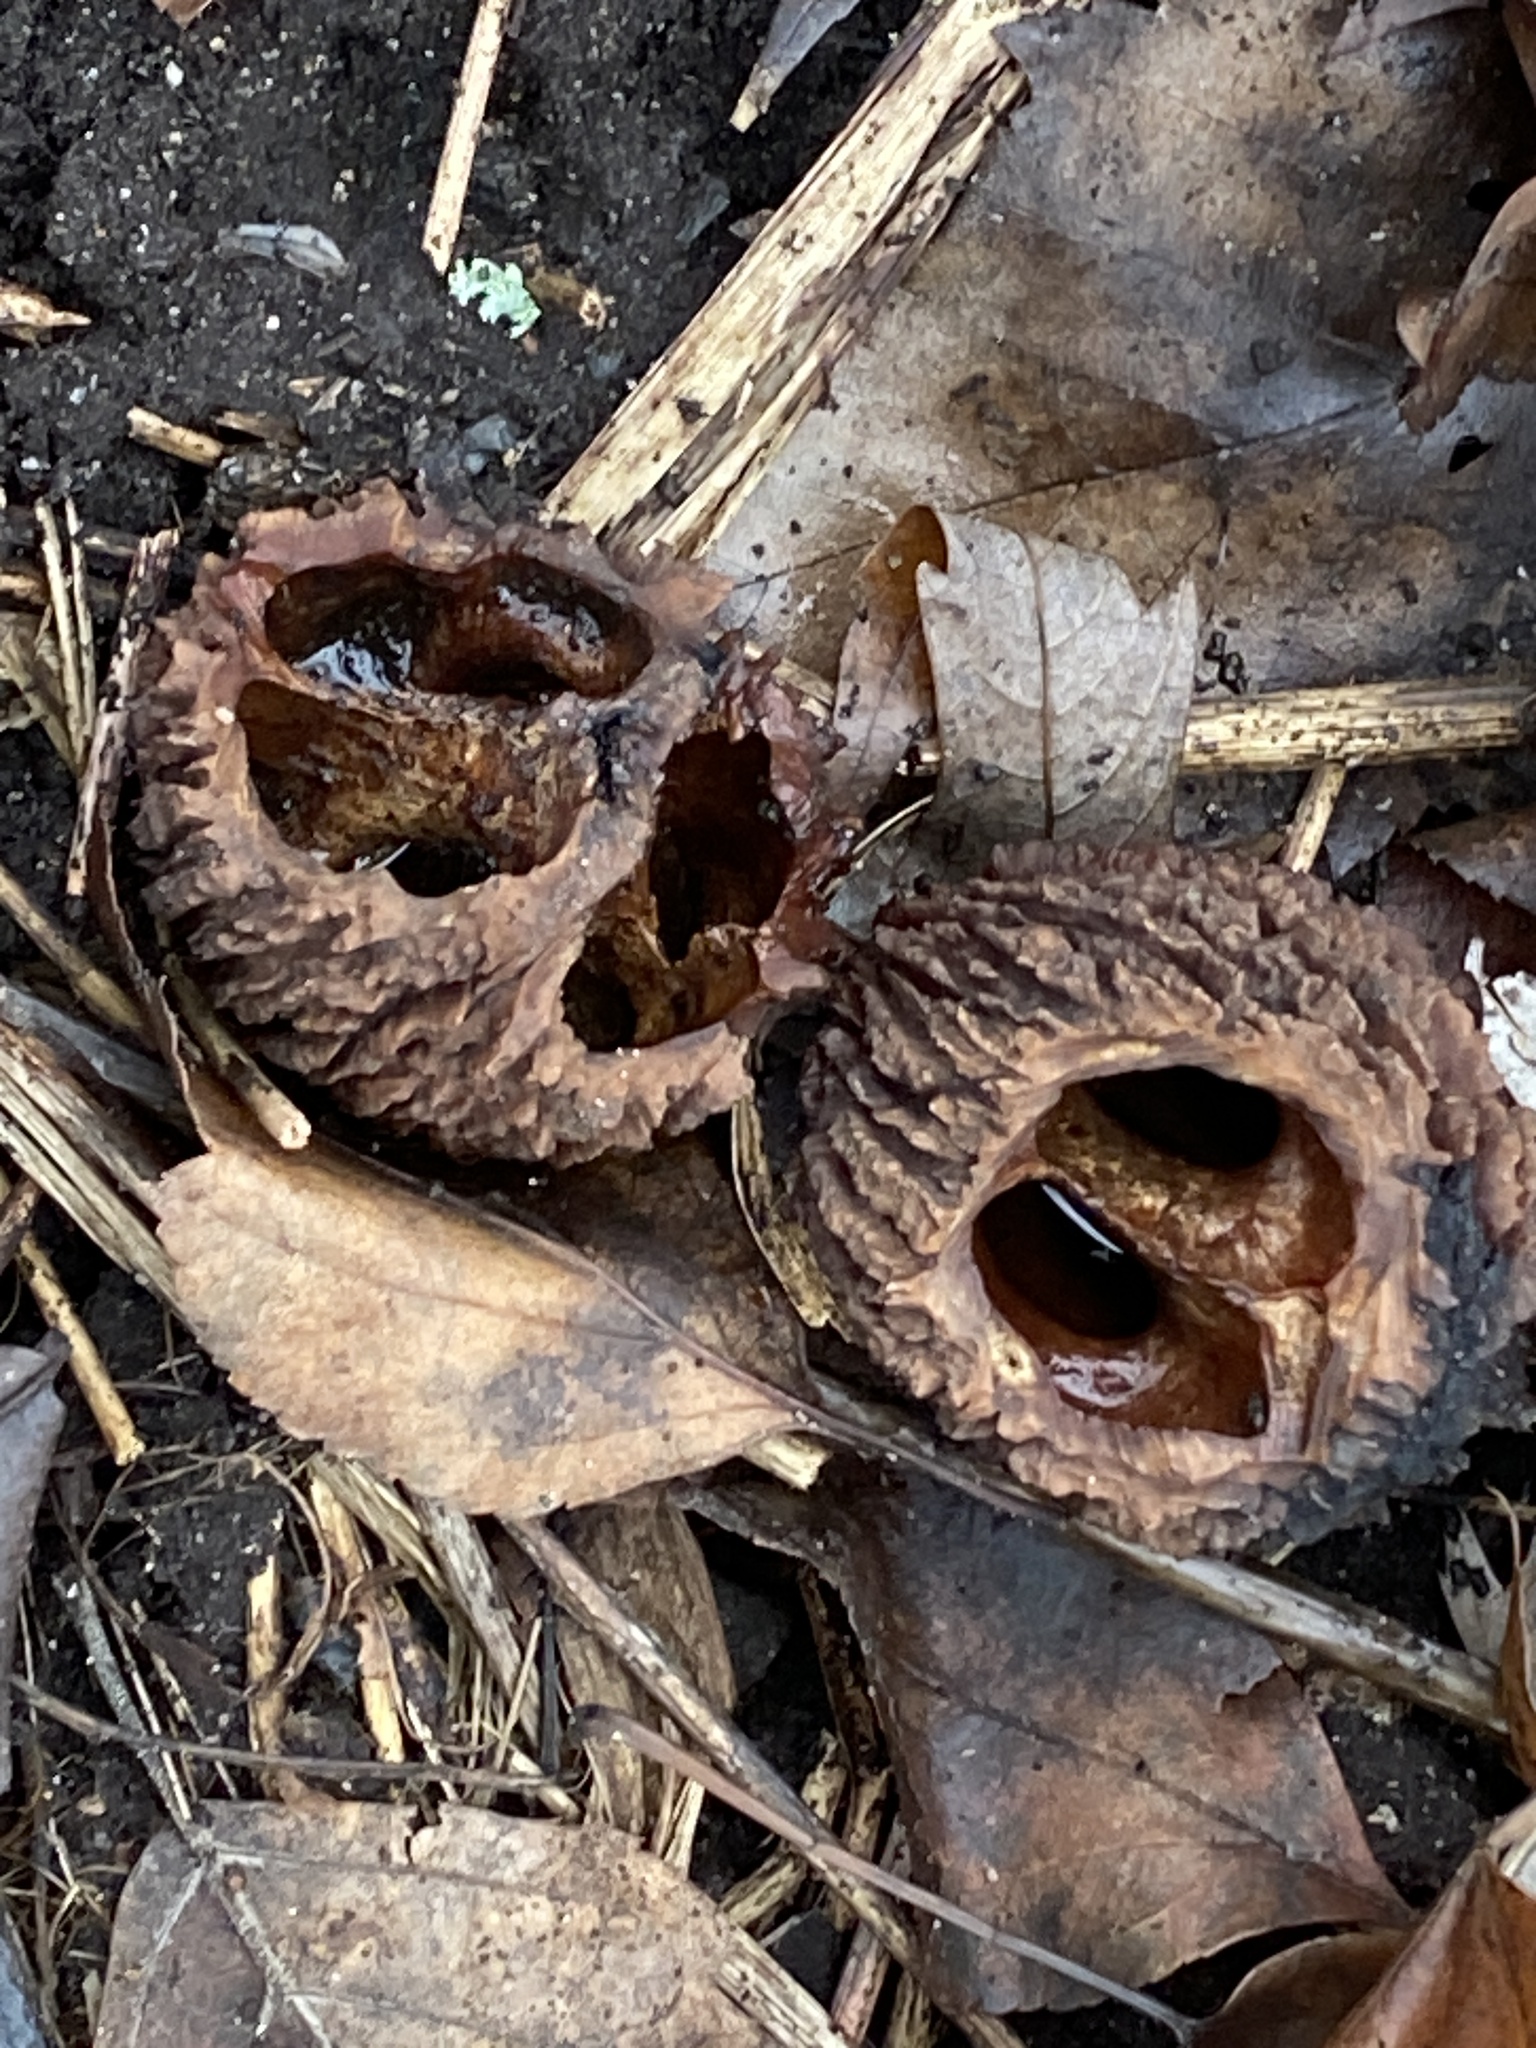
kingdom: Plantae
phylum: Tracheophyta
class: Magnoliopsida
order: Fagales
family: Juglandaceae
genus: Juglans
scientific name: Juglans nigra
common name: Black walnut
